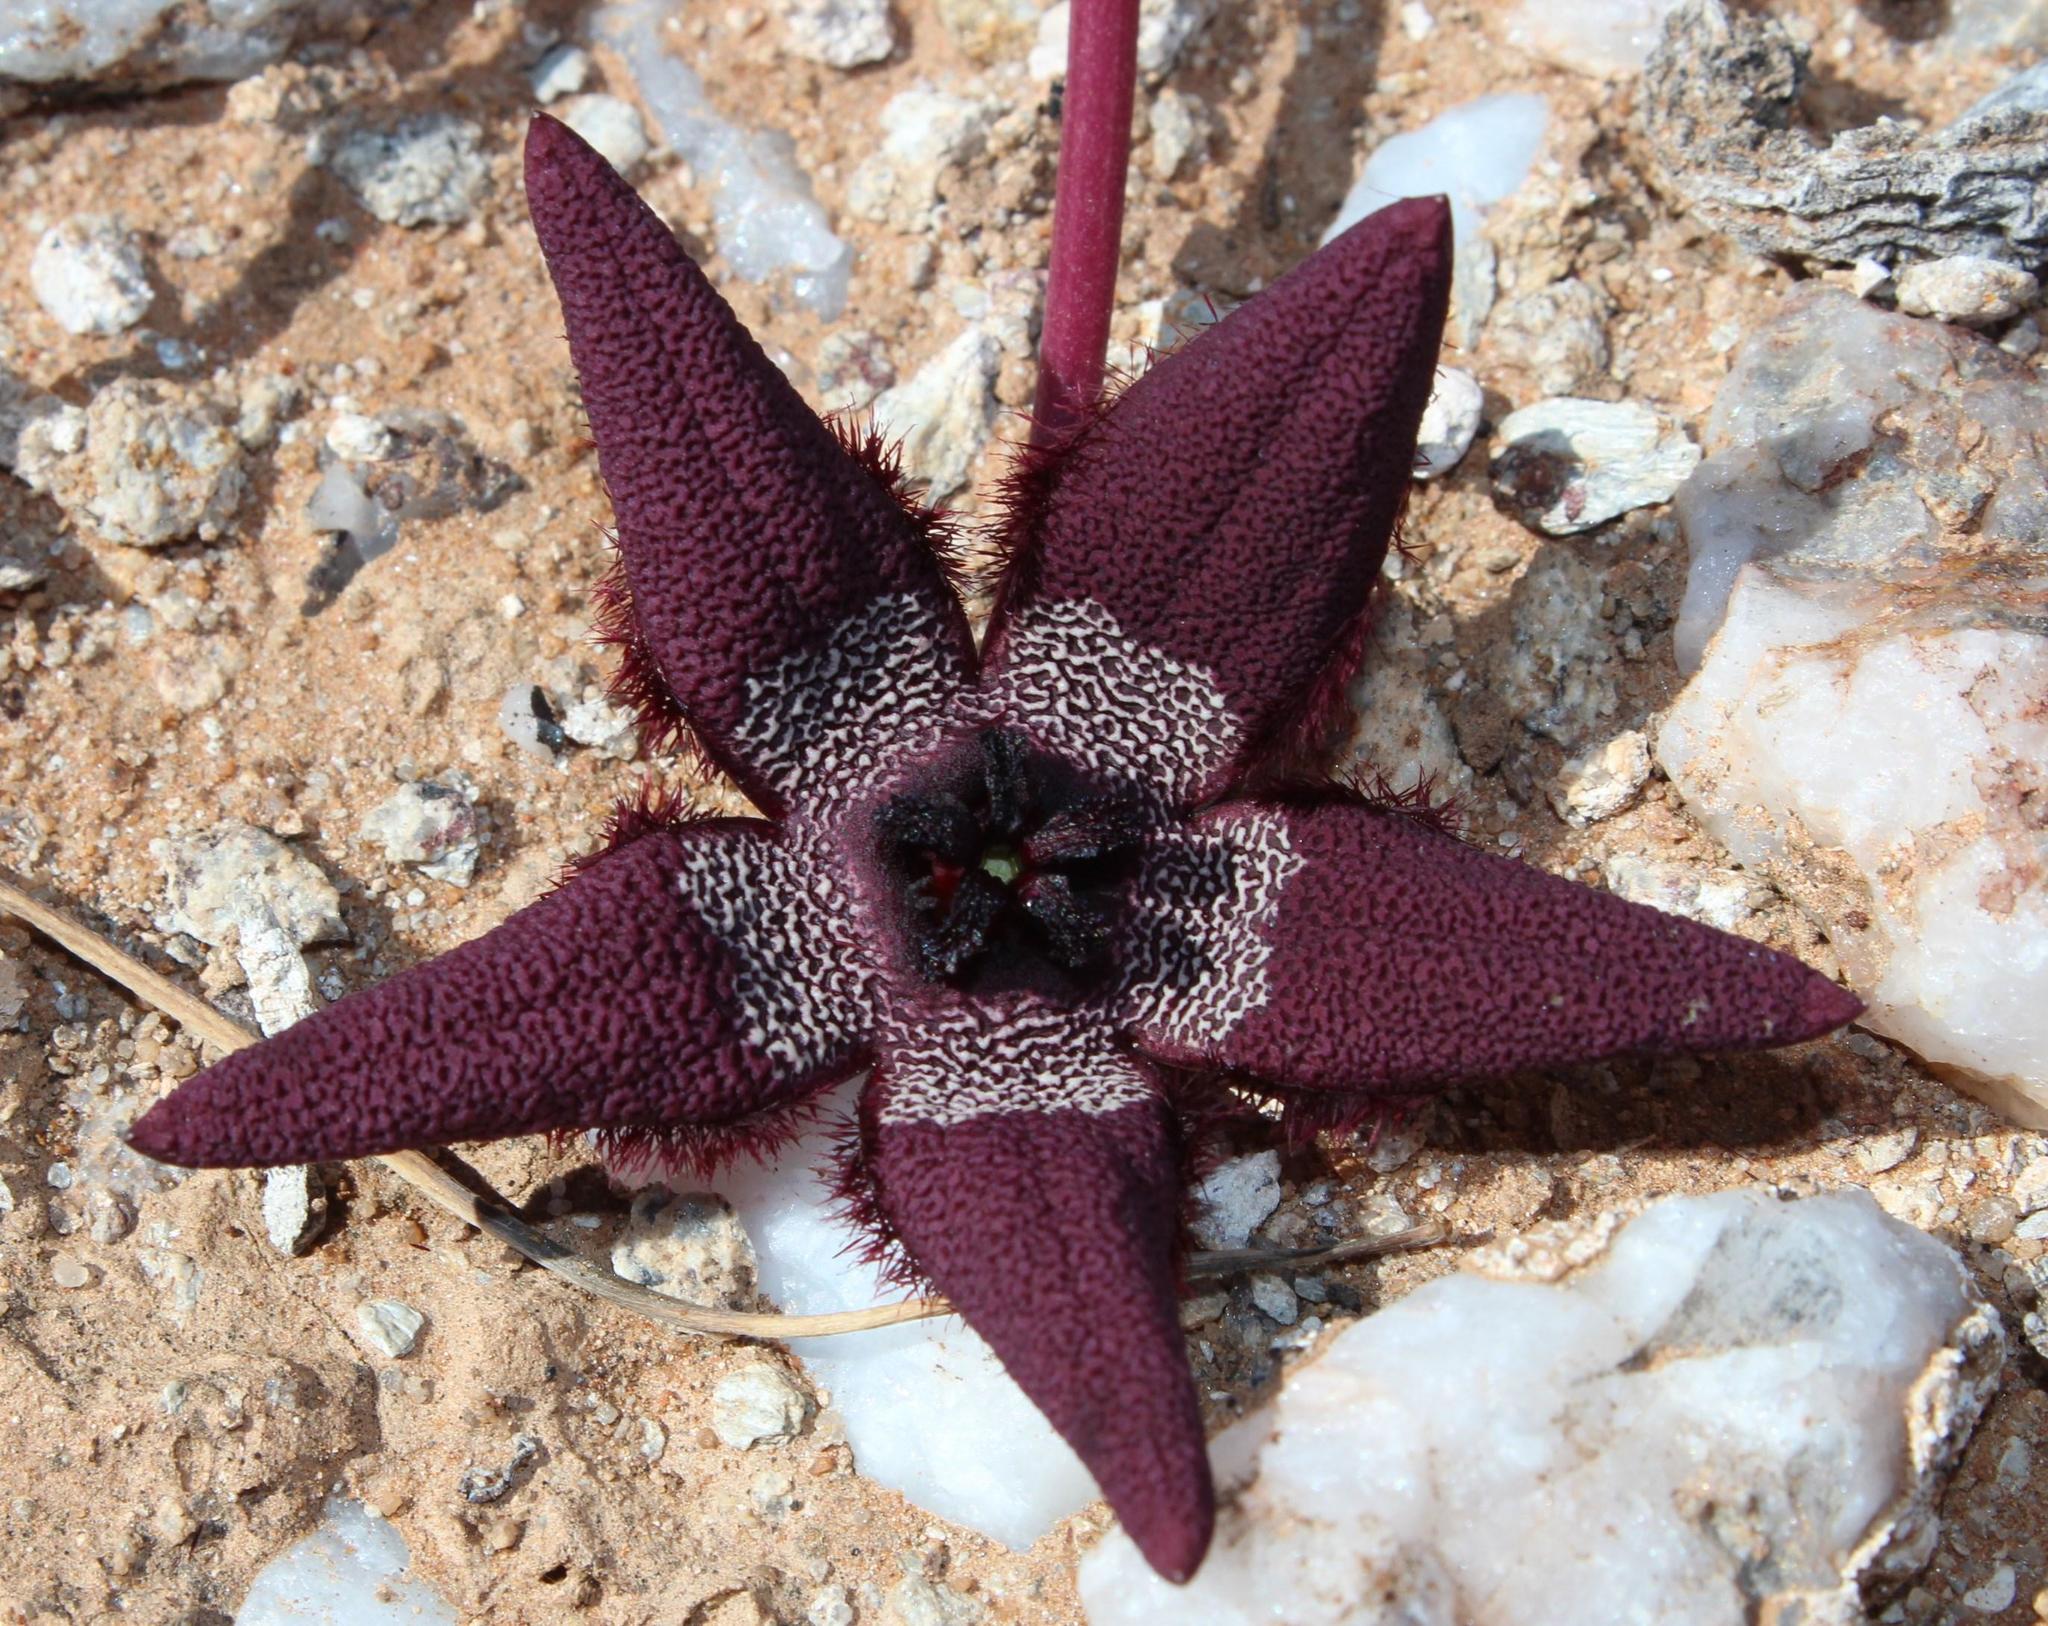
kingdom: Plantae
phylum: Tracheophyta
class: Magnoliopsida
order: Gentianales
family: Apocynaceae
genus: Ceropegia
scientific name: Ceropegia penduliflora
